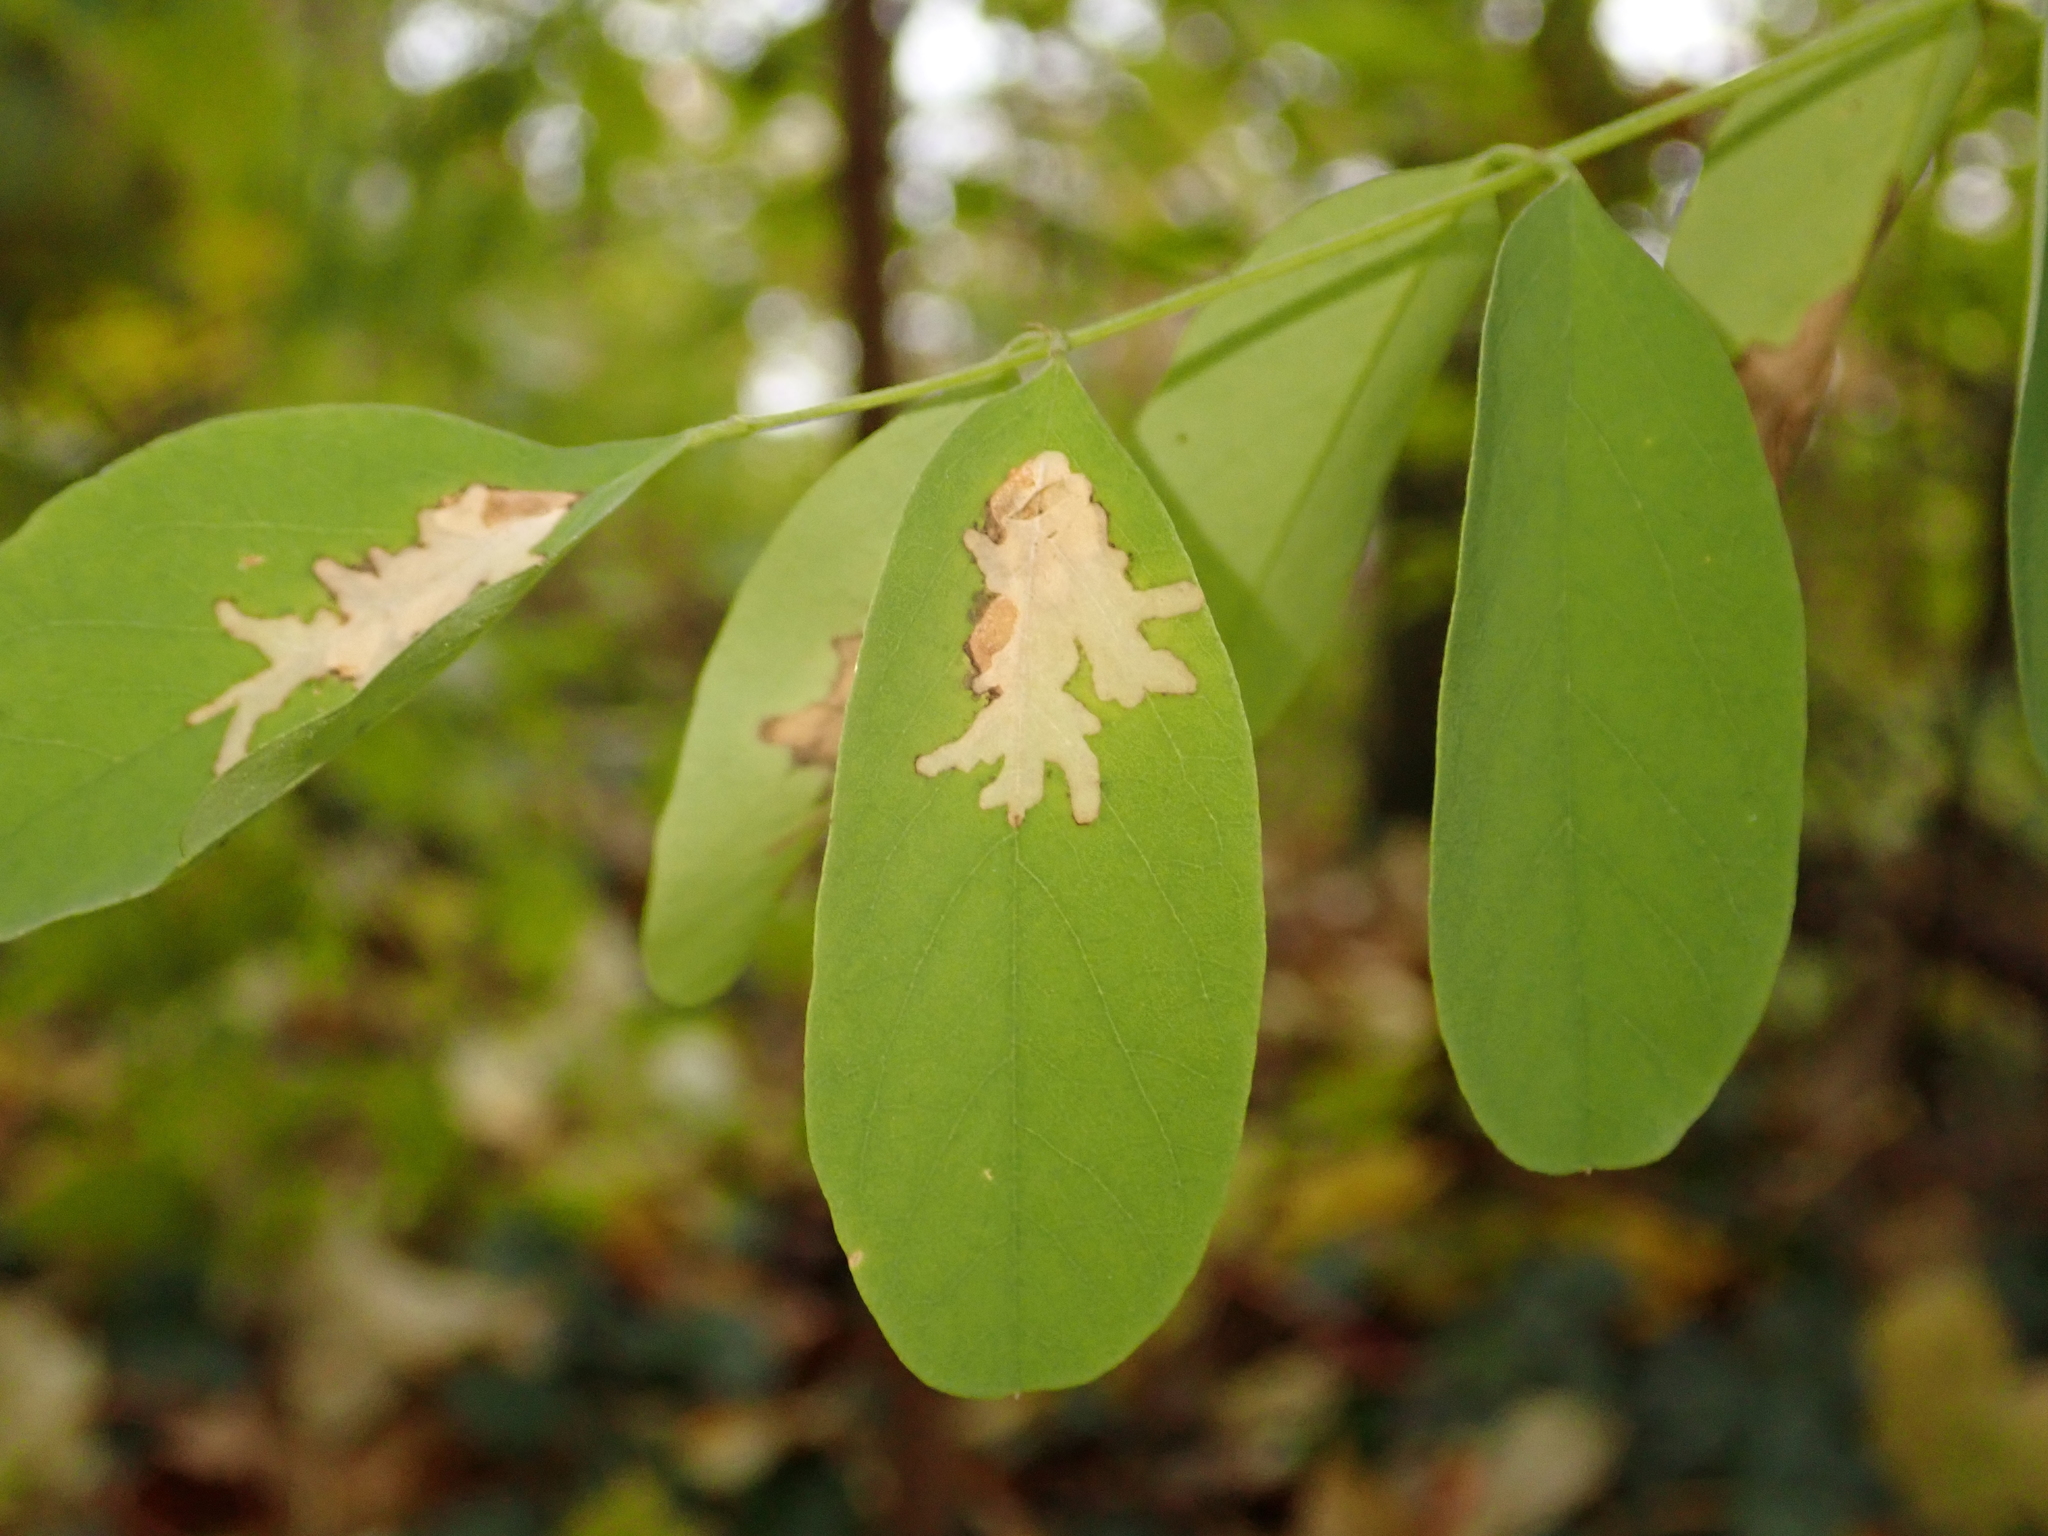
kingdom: Plantae
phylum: Tracheophyta
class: Magnoliopsida
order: Fabales
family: Fabaceae
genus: Robinia
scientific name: Robinia pseudoacacia
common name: Black locust
